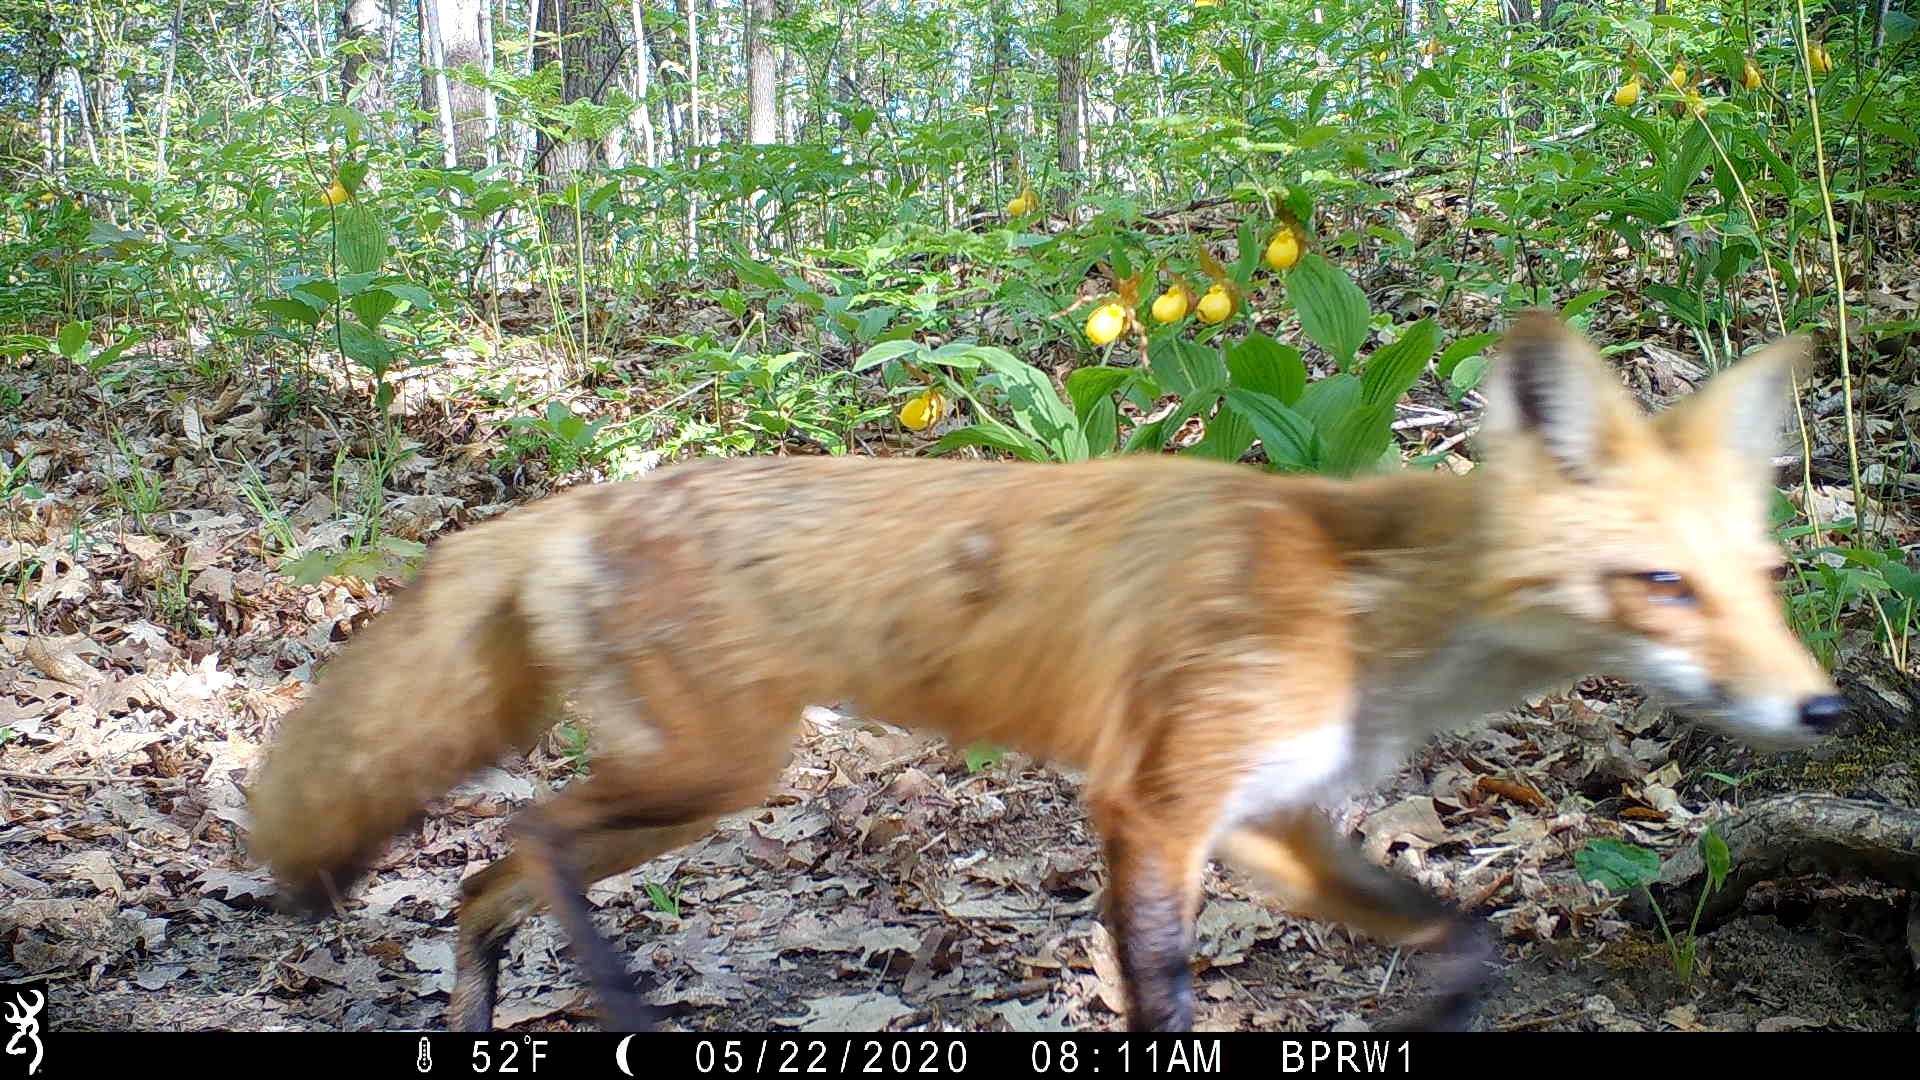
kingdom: Animalia
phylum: Chordata
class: Mammalia
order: Carnivora
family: Canidae
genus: Vulpes
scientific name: Vulpes vulpes
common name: Red fox
